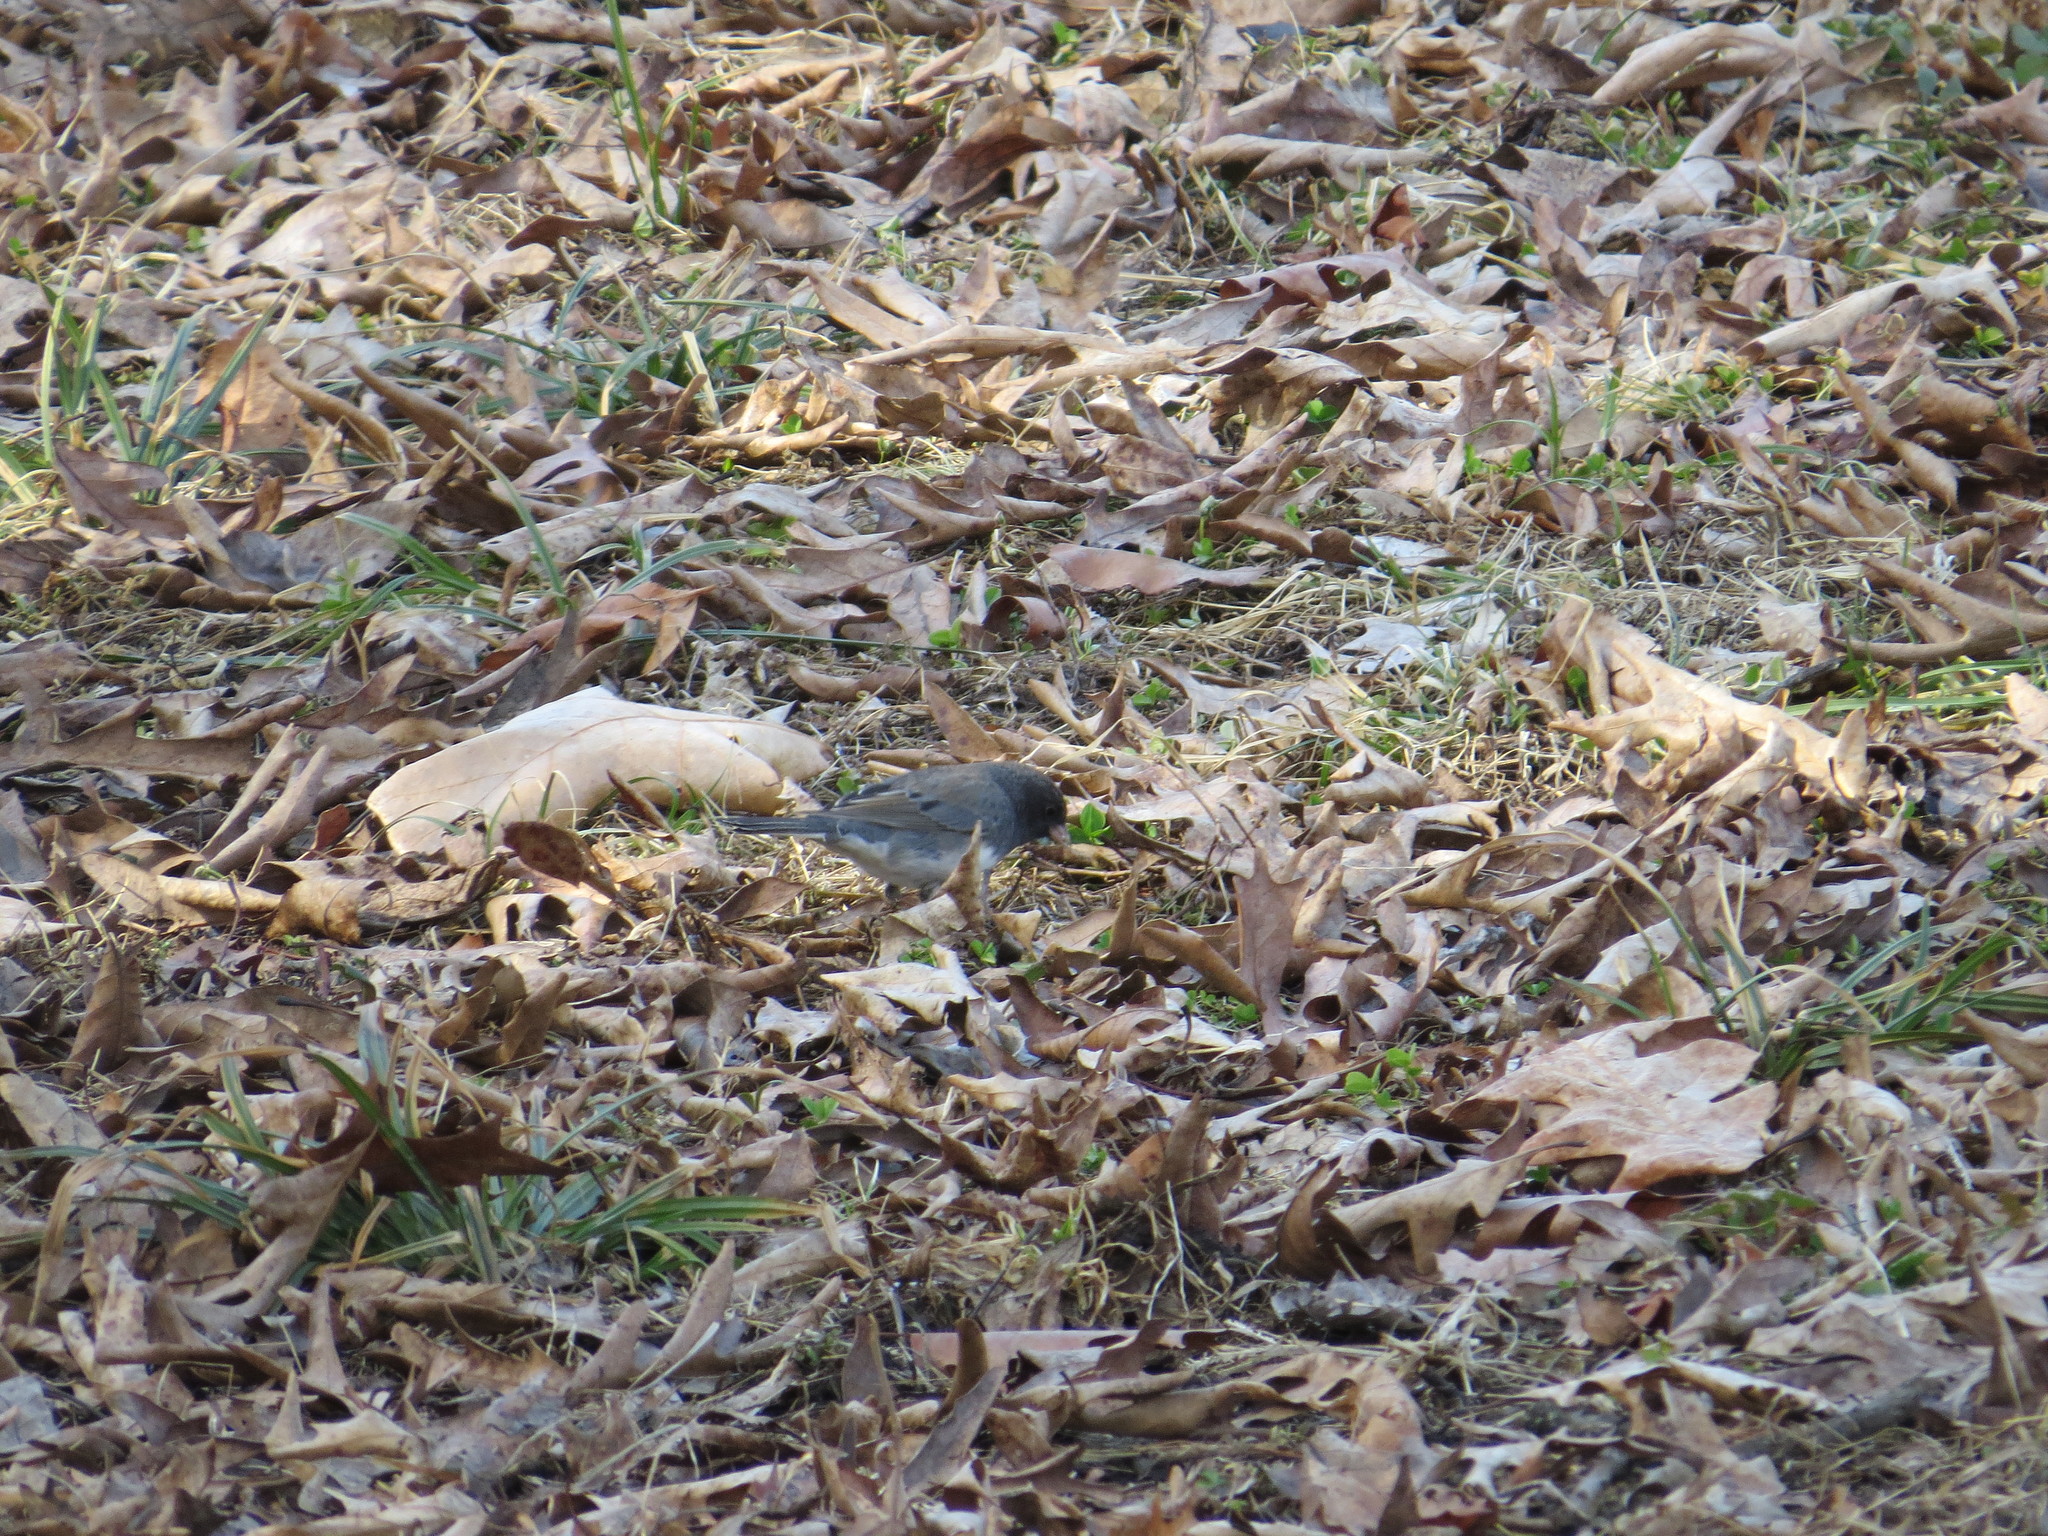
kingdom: Animalia
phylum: Chordata
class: Aves
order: Passeriformes
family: Passerellidae
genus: Junco
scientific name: Junco hyemalis
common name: Dark-eyed junco
